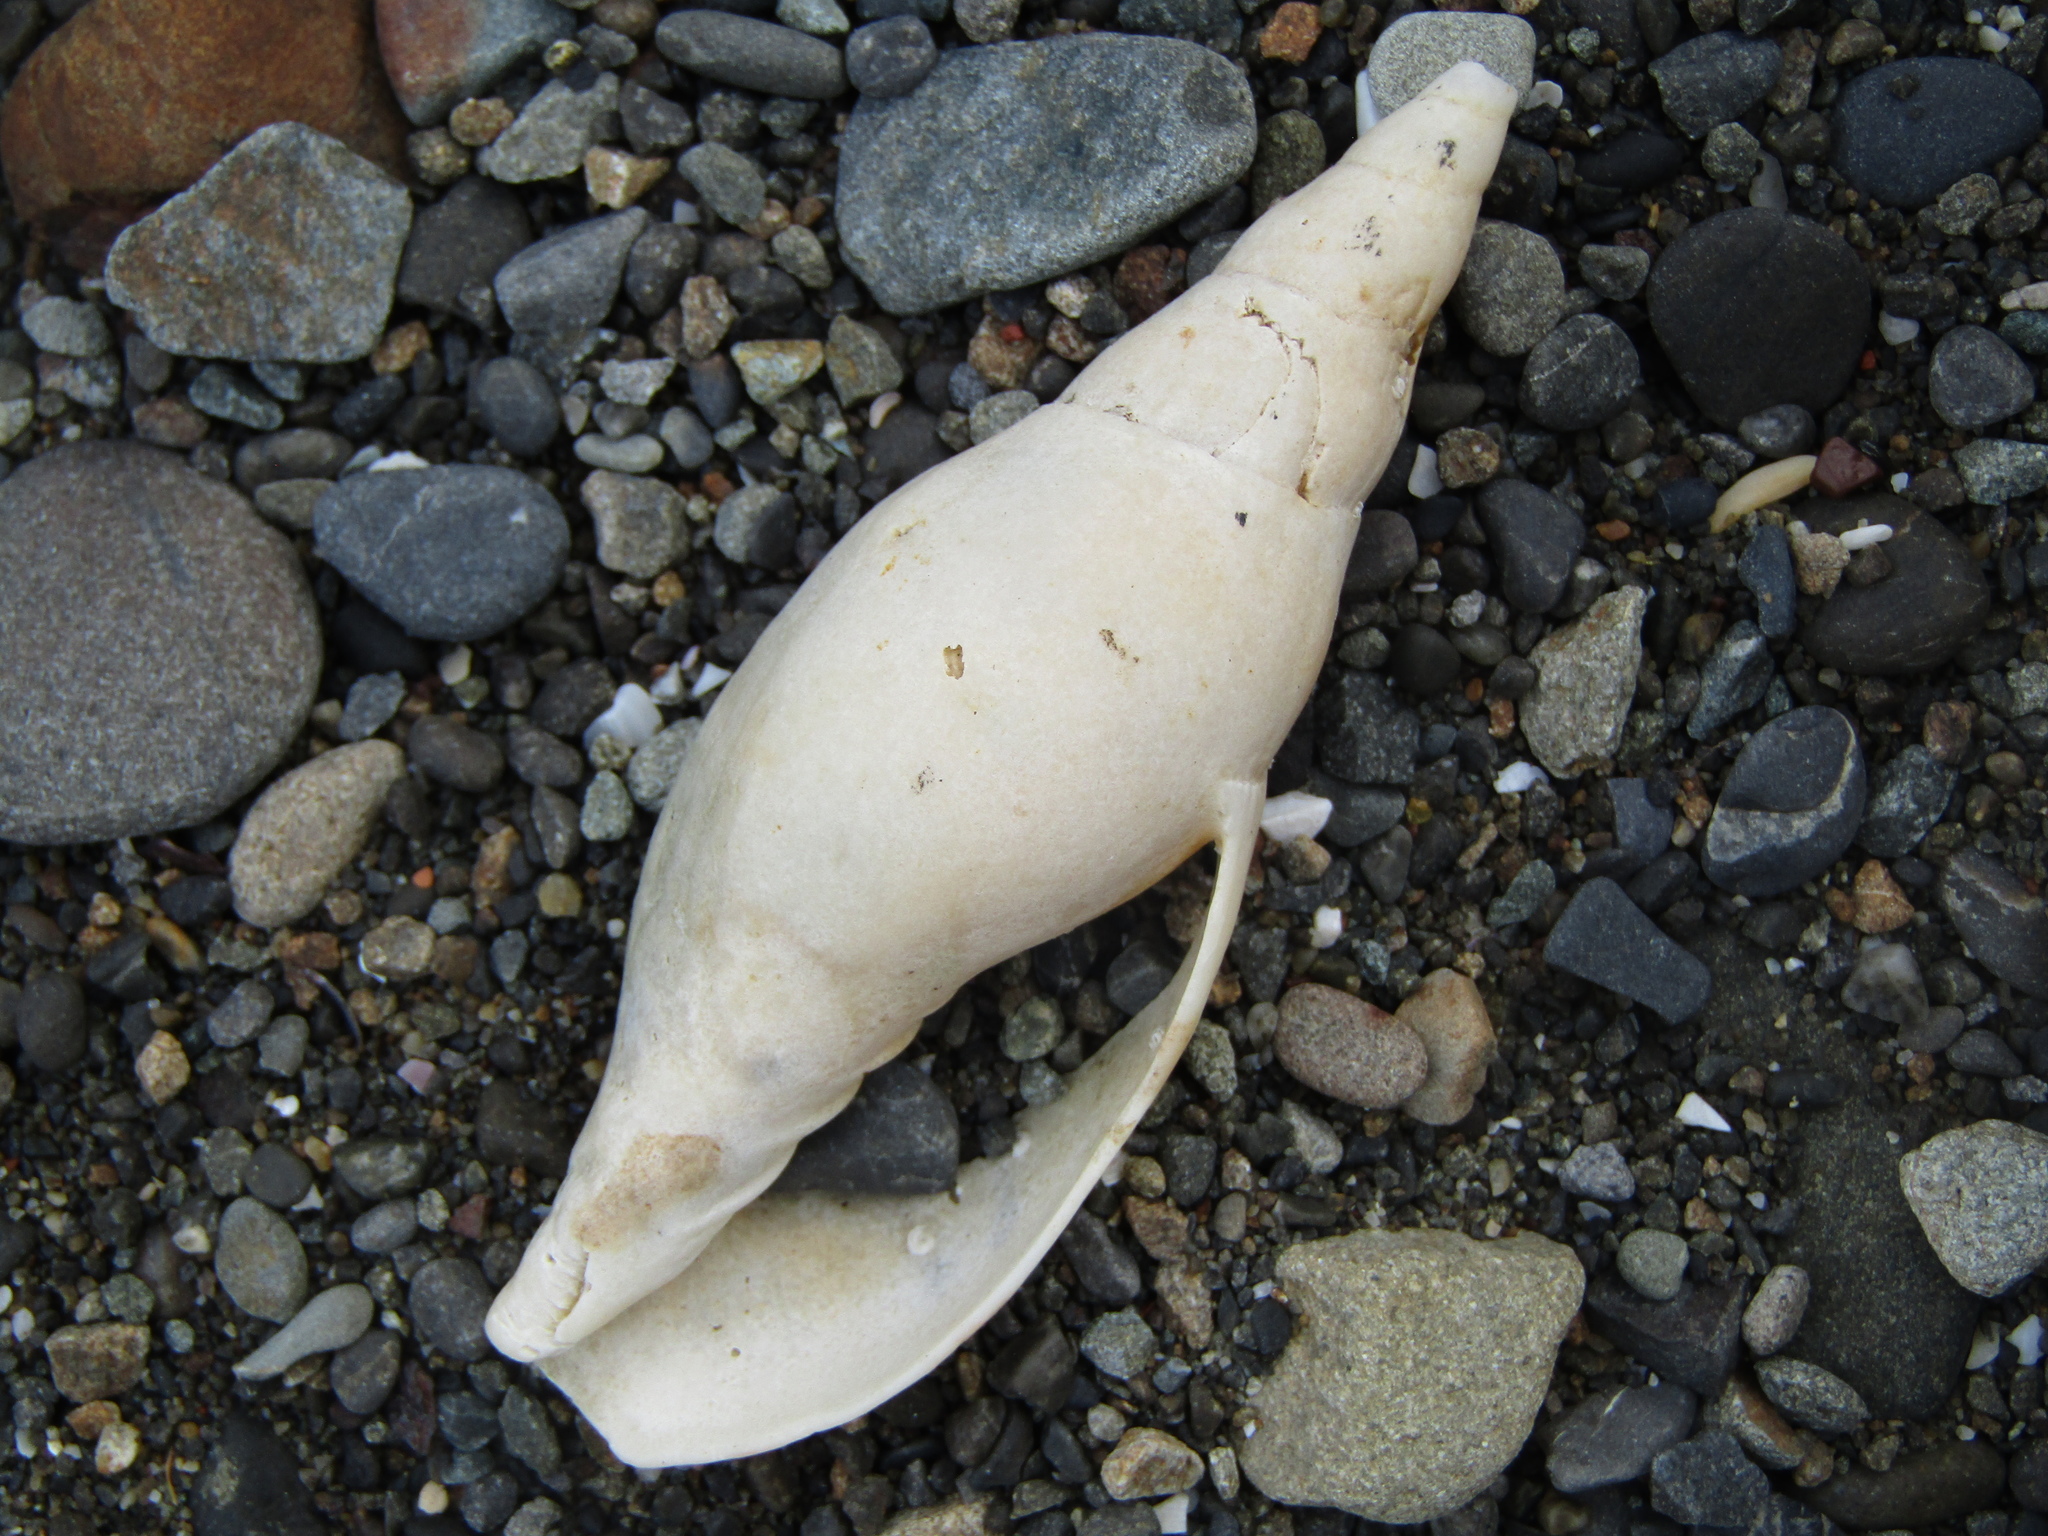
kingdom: Animalia
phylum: Mollusca
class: Gastropoda
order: Neogastropoda
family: Volutidae
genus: Alcithoe
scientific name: Alcithoe fusus
